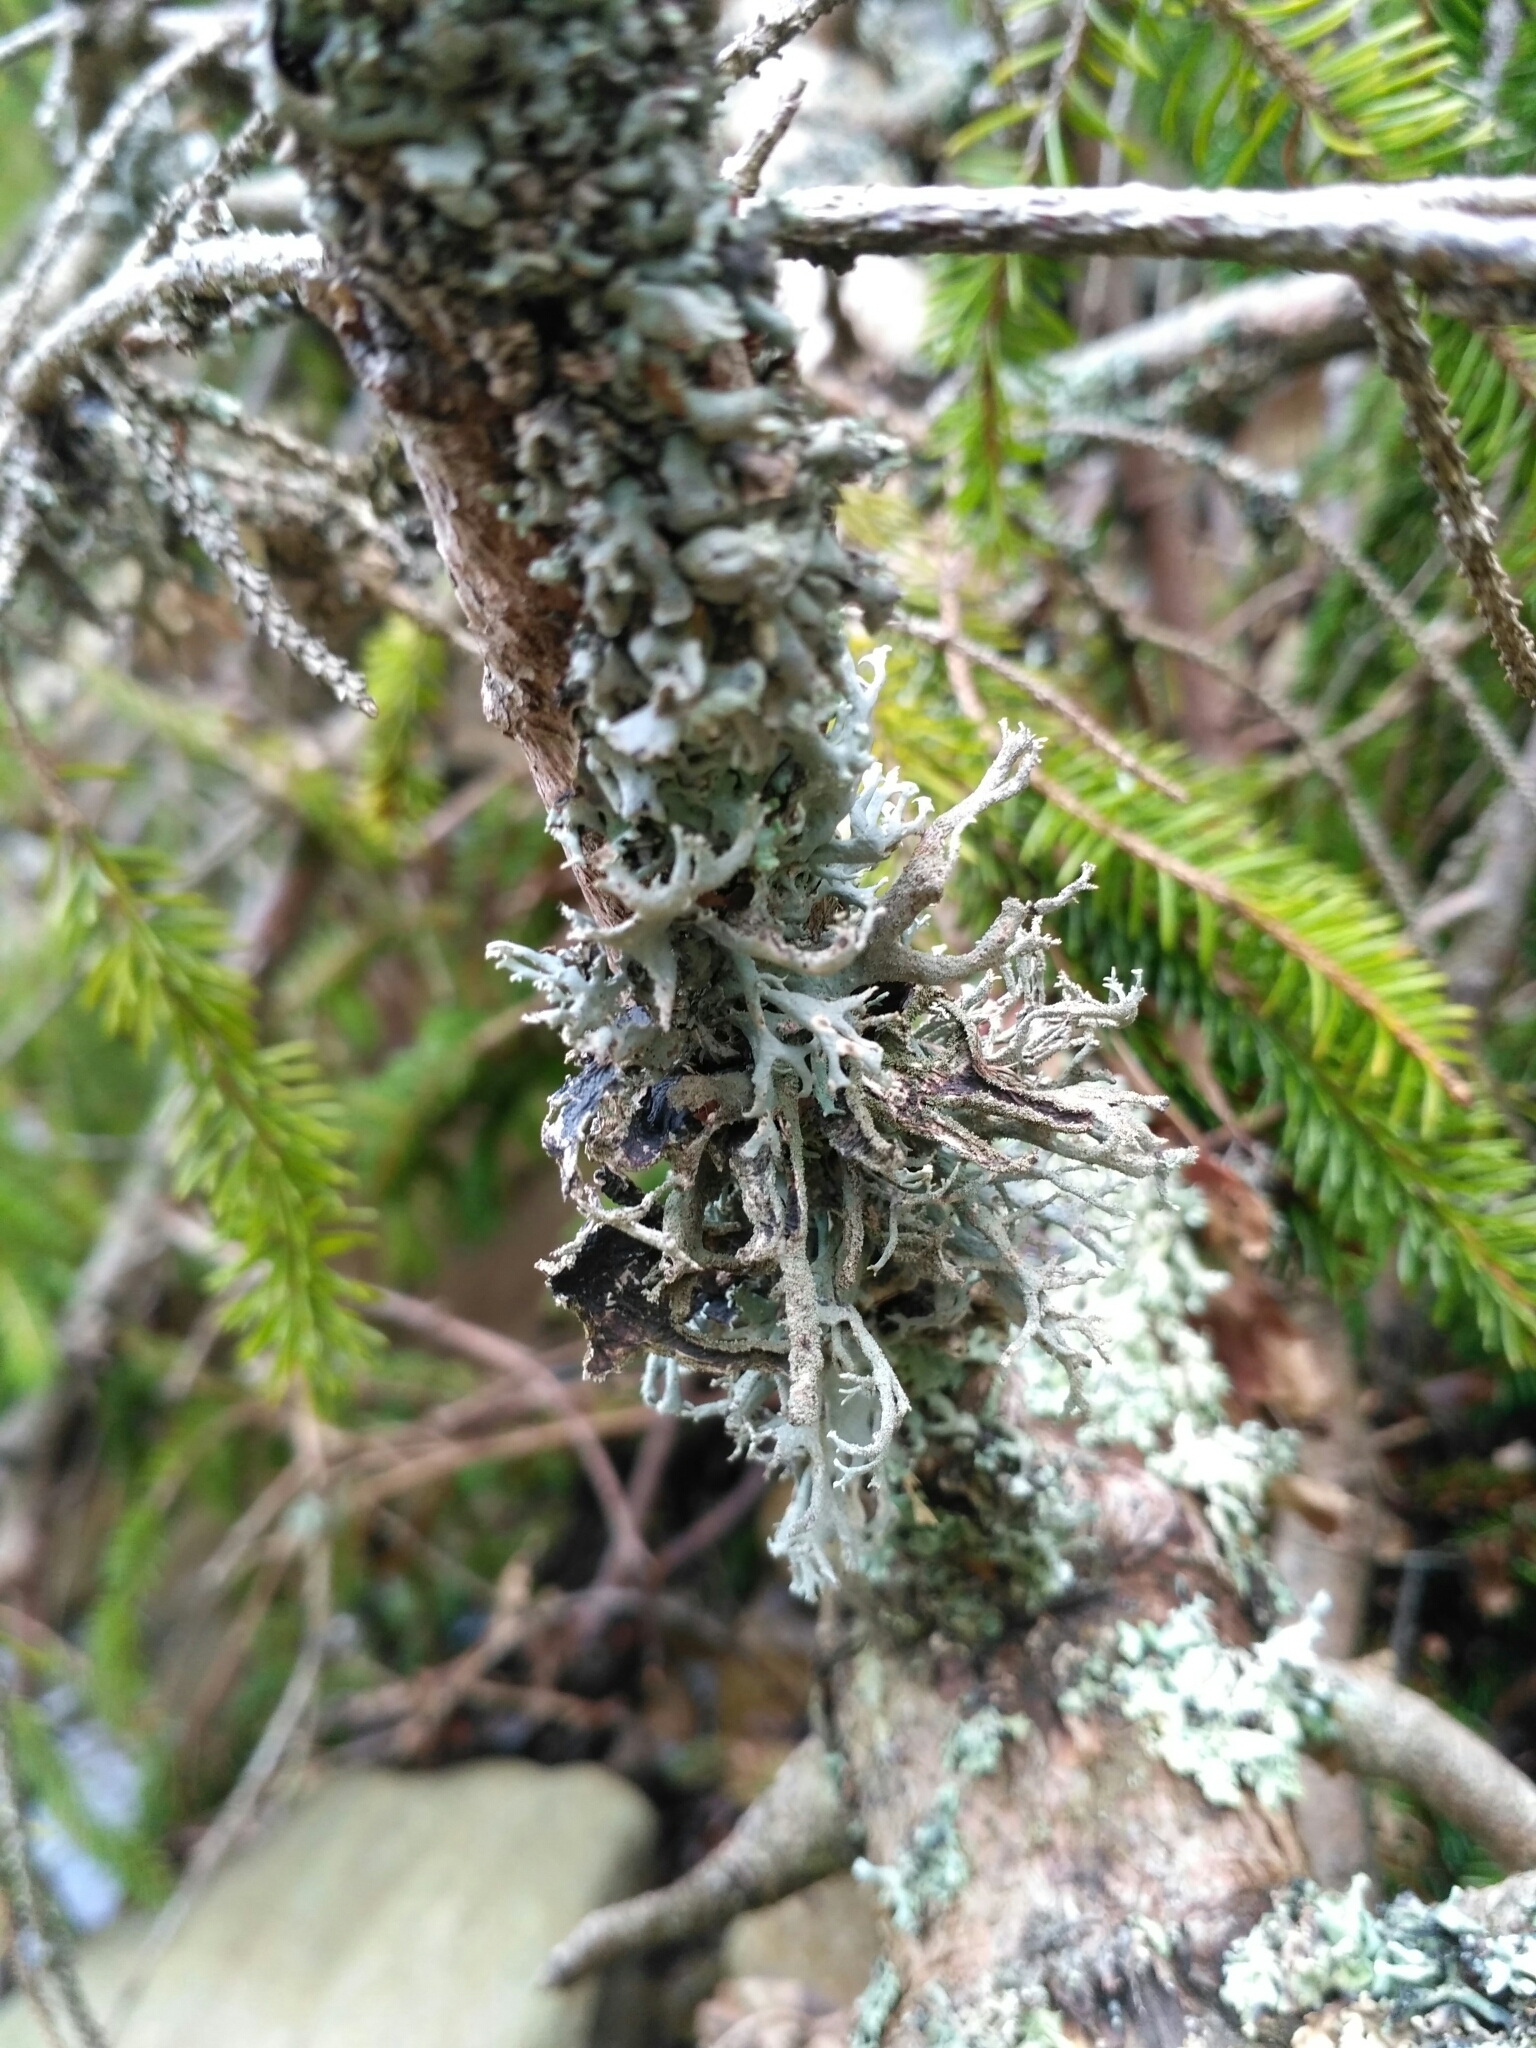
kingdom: Fungi
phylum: Ascomycota
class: Lecanoromycetes
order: Lecanorales
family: Parmeliaceae
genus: Pseudevernia
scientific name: Pseudevernia furfuracea
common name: Tree moss
